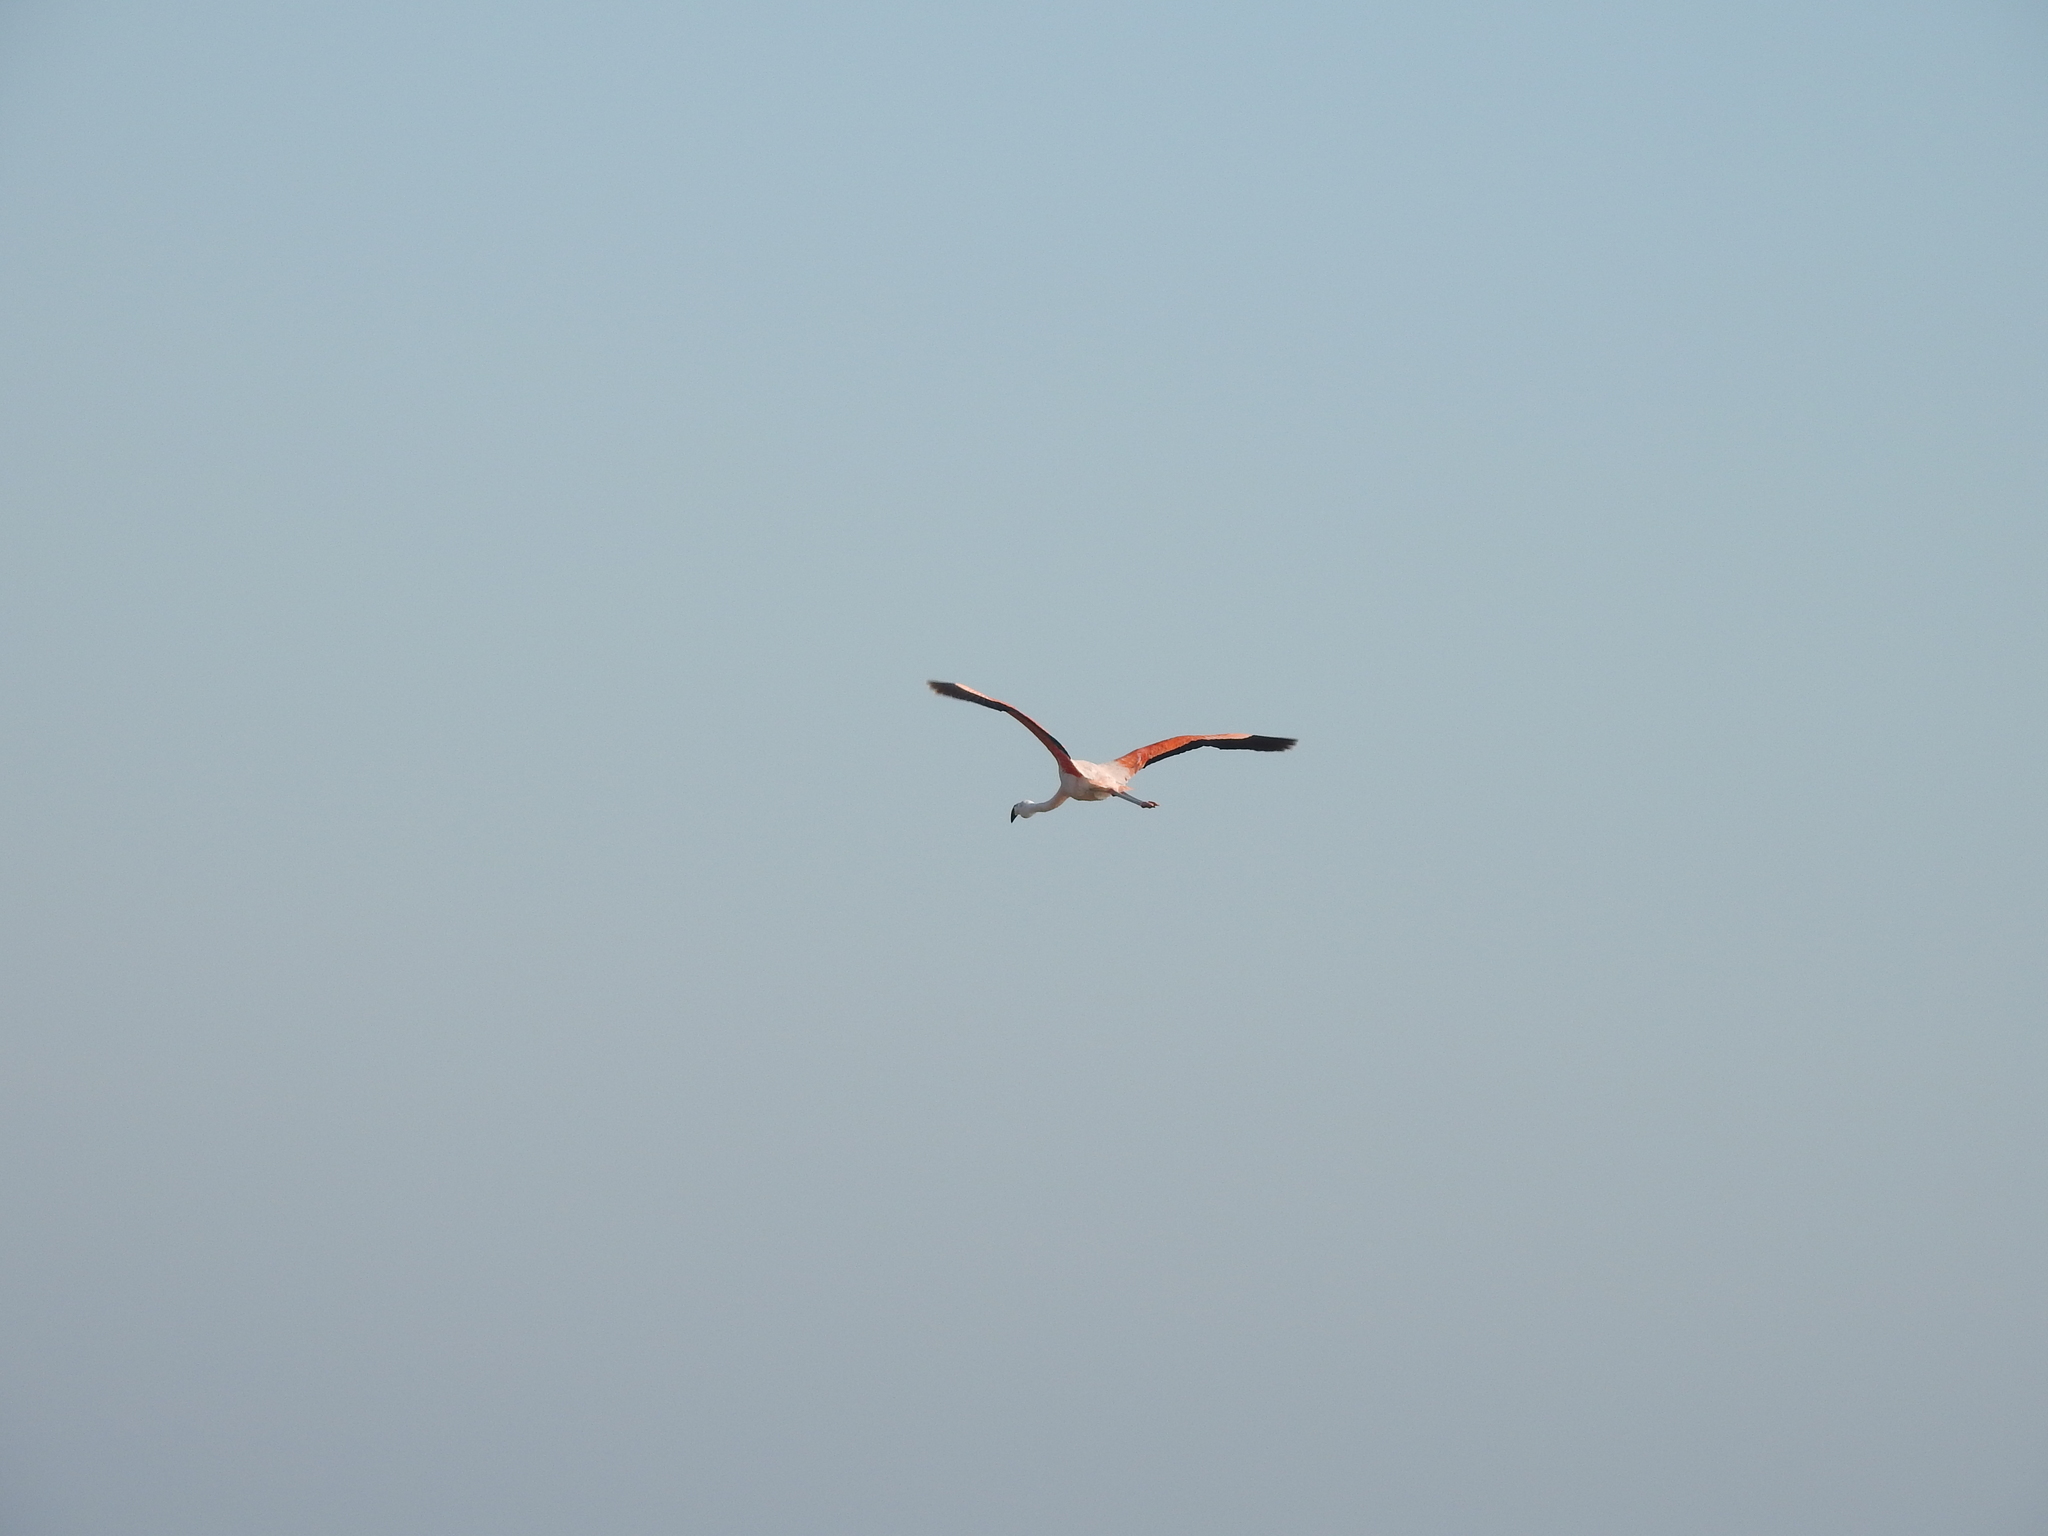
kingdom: Animalia
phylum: Chordata
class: Aves
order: Phoenicopteriformes
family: Phoenicopteridae
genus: Phoenicopterus
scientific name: Phoenicopterus chilensis
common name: Chilean flamingo
